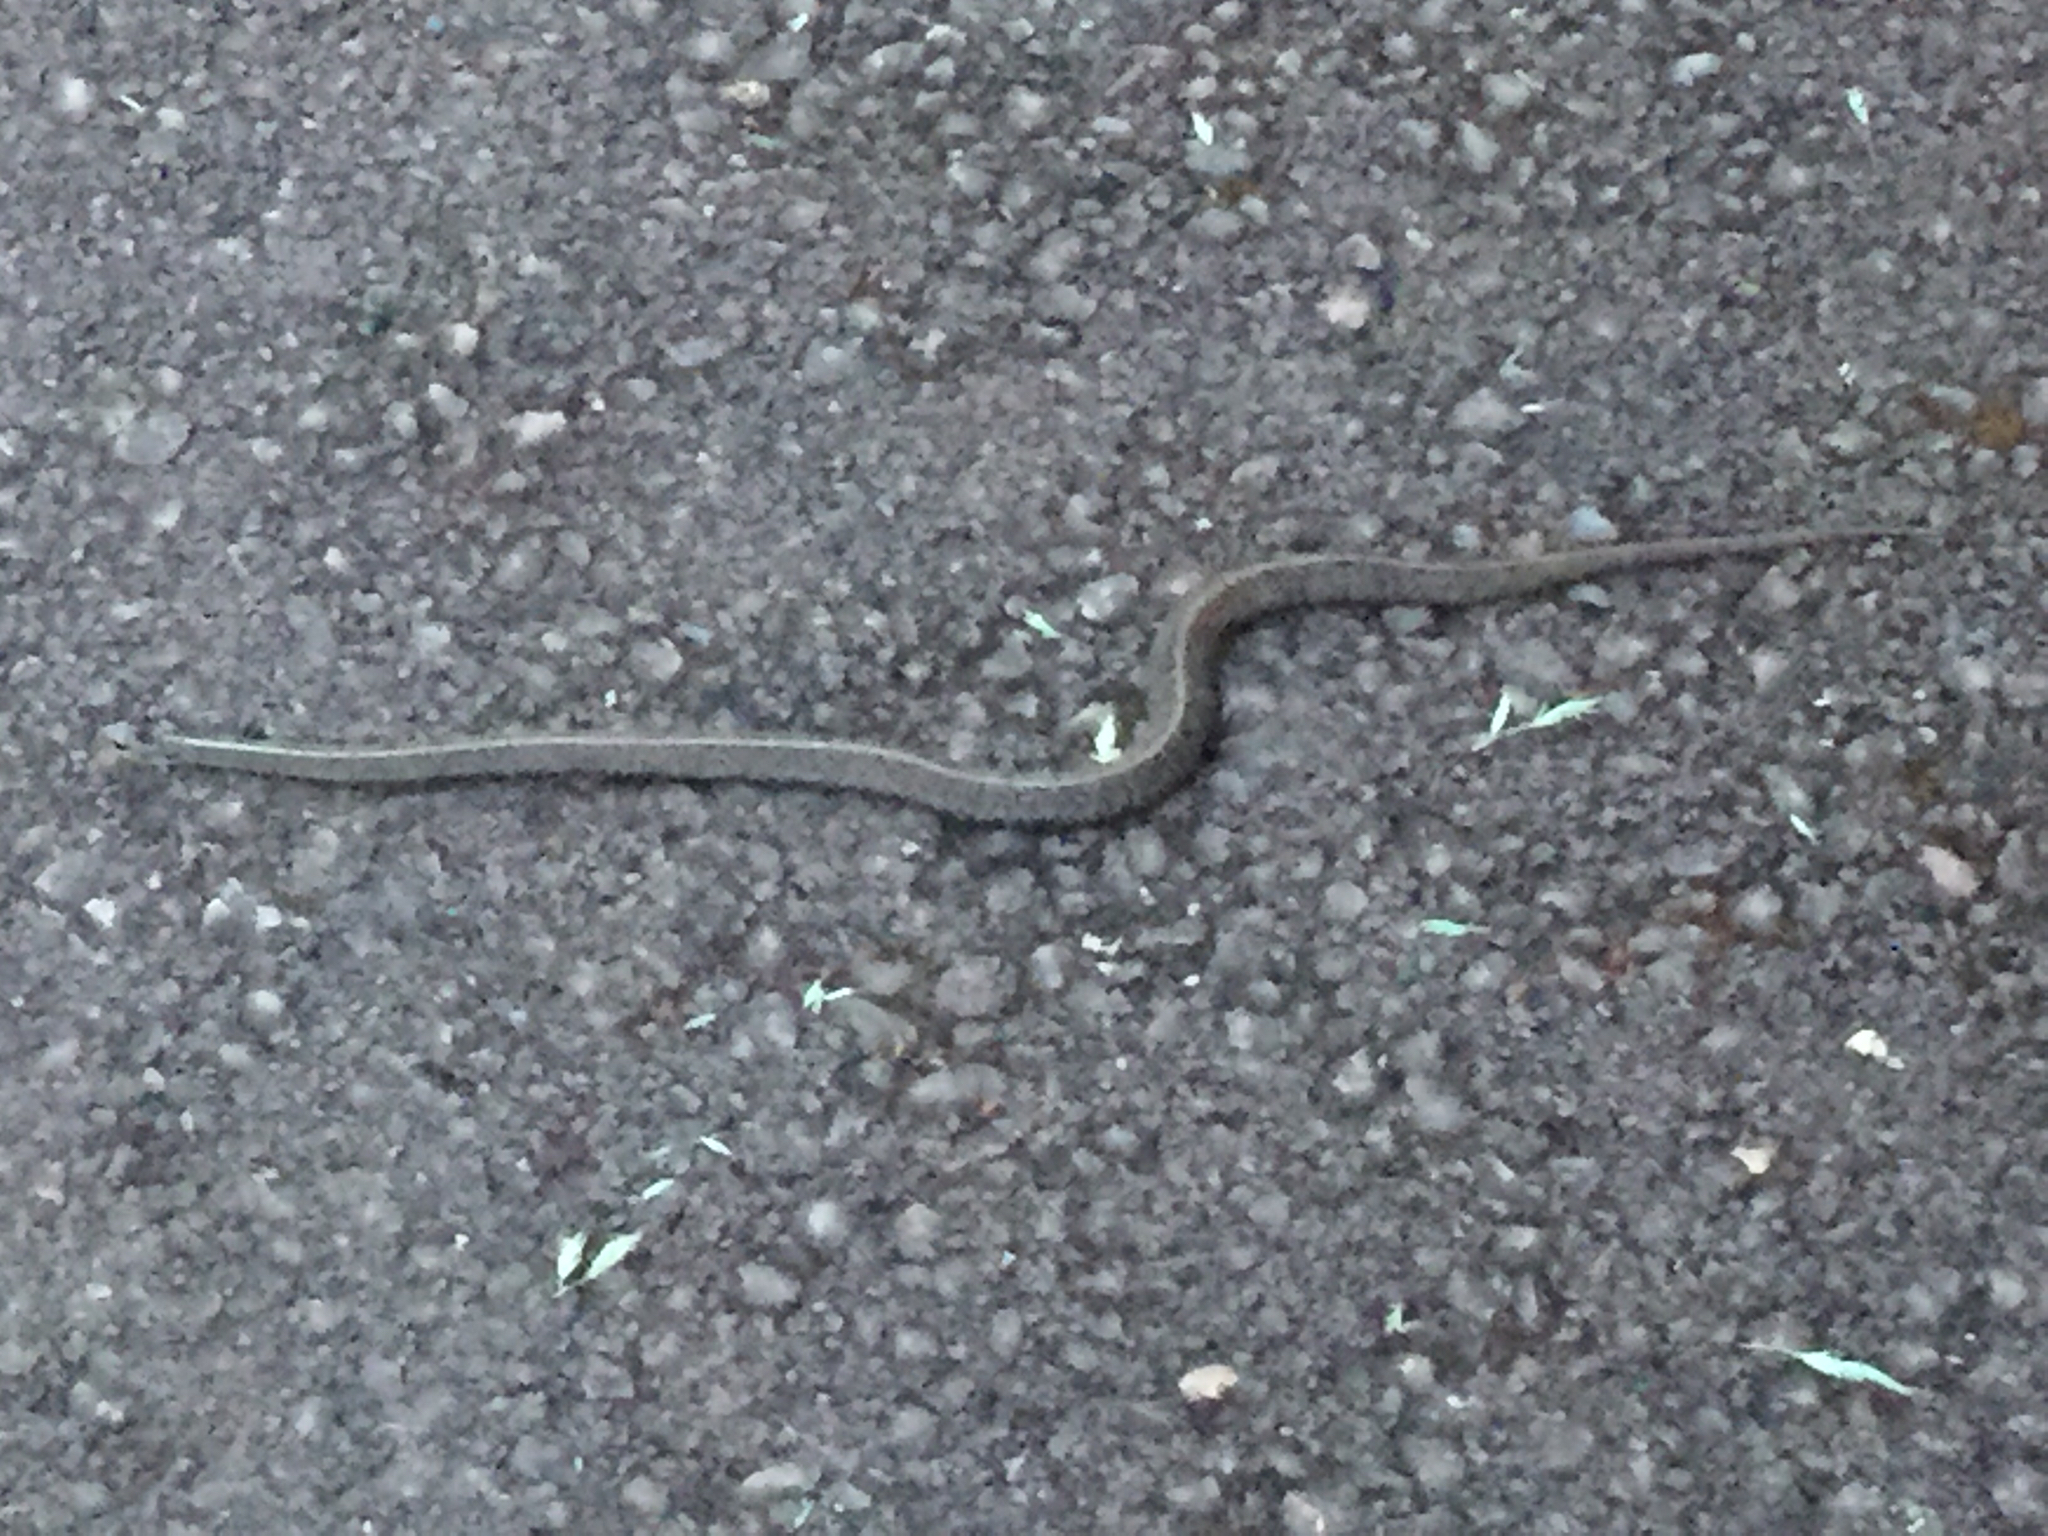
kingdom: Animalia
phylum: Chordata
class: Squamata
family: Colubridae
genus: Thamnophis
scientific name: Thamnophis ordinoides
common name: Northwestern garter snake
